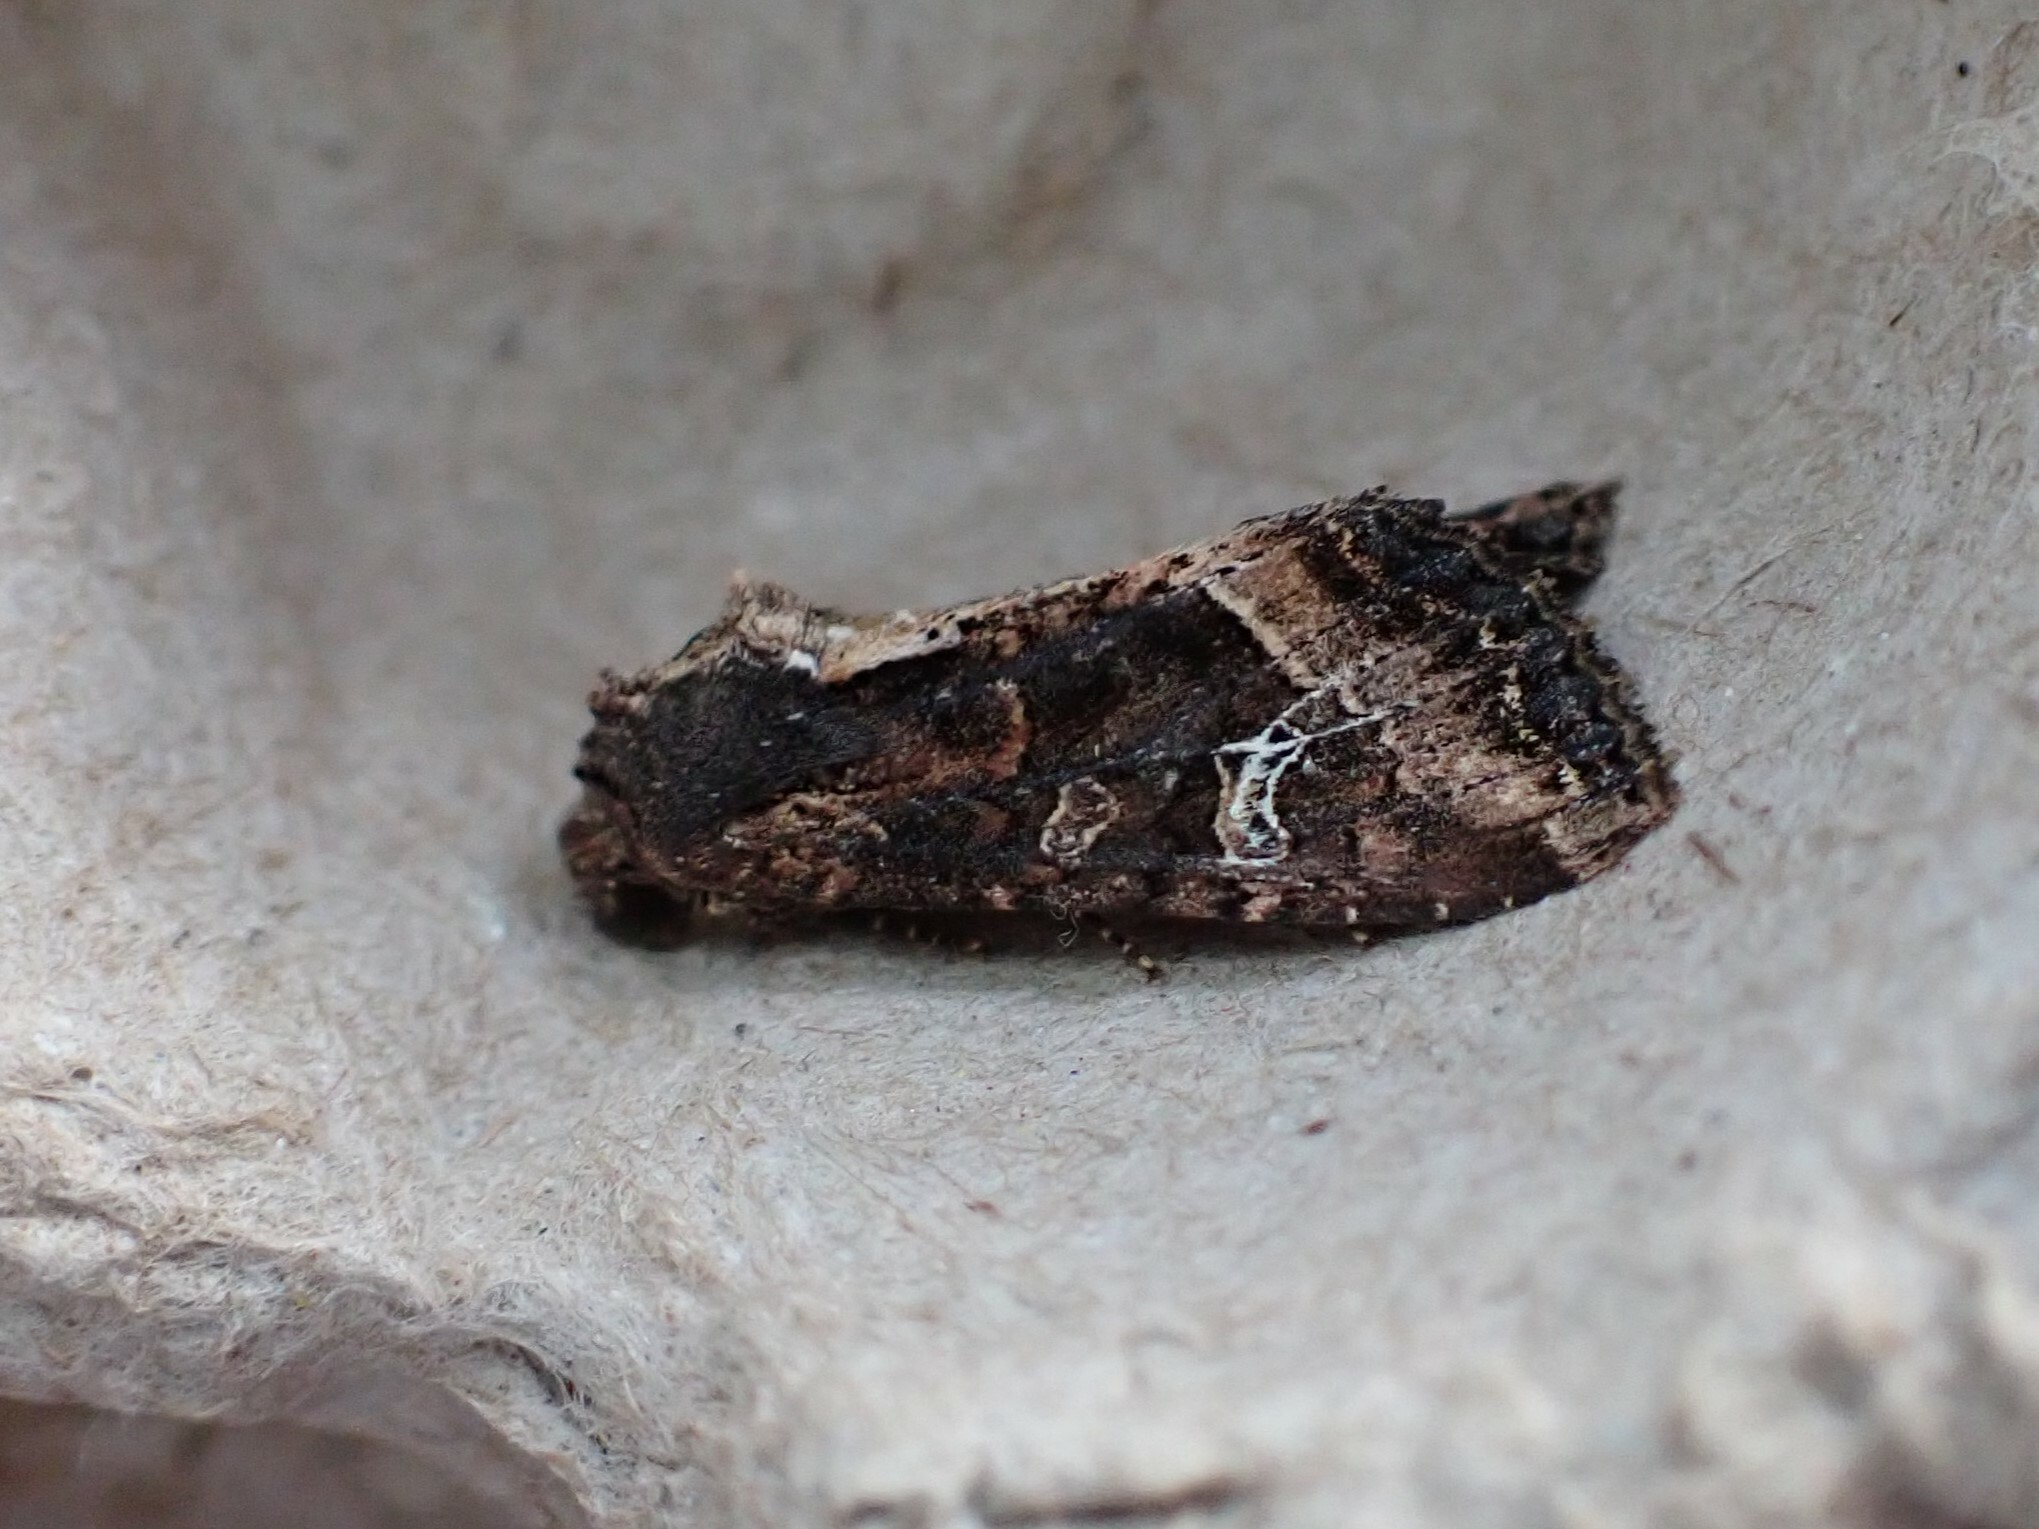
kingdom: Animalia
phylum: Arthropoda
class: Insecta
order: Lepidoptera
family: Noctuidae
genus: Helotropha
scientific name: Helotropha reniformis
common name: Kidney-spotted rustic moth
